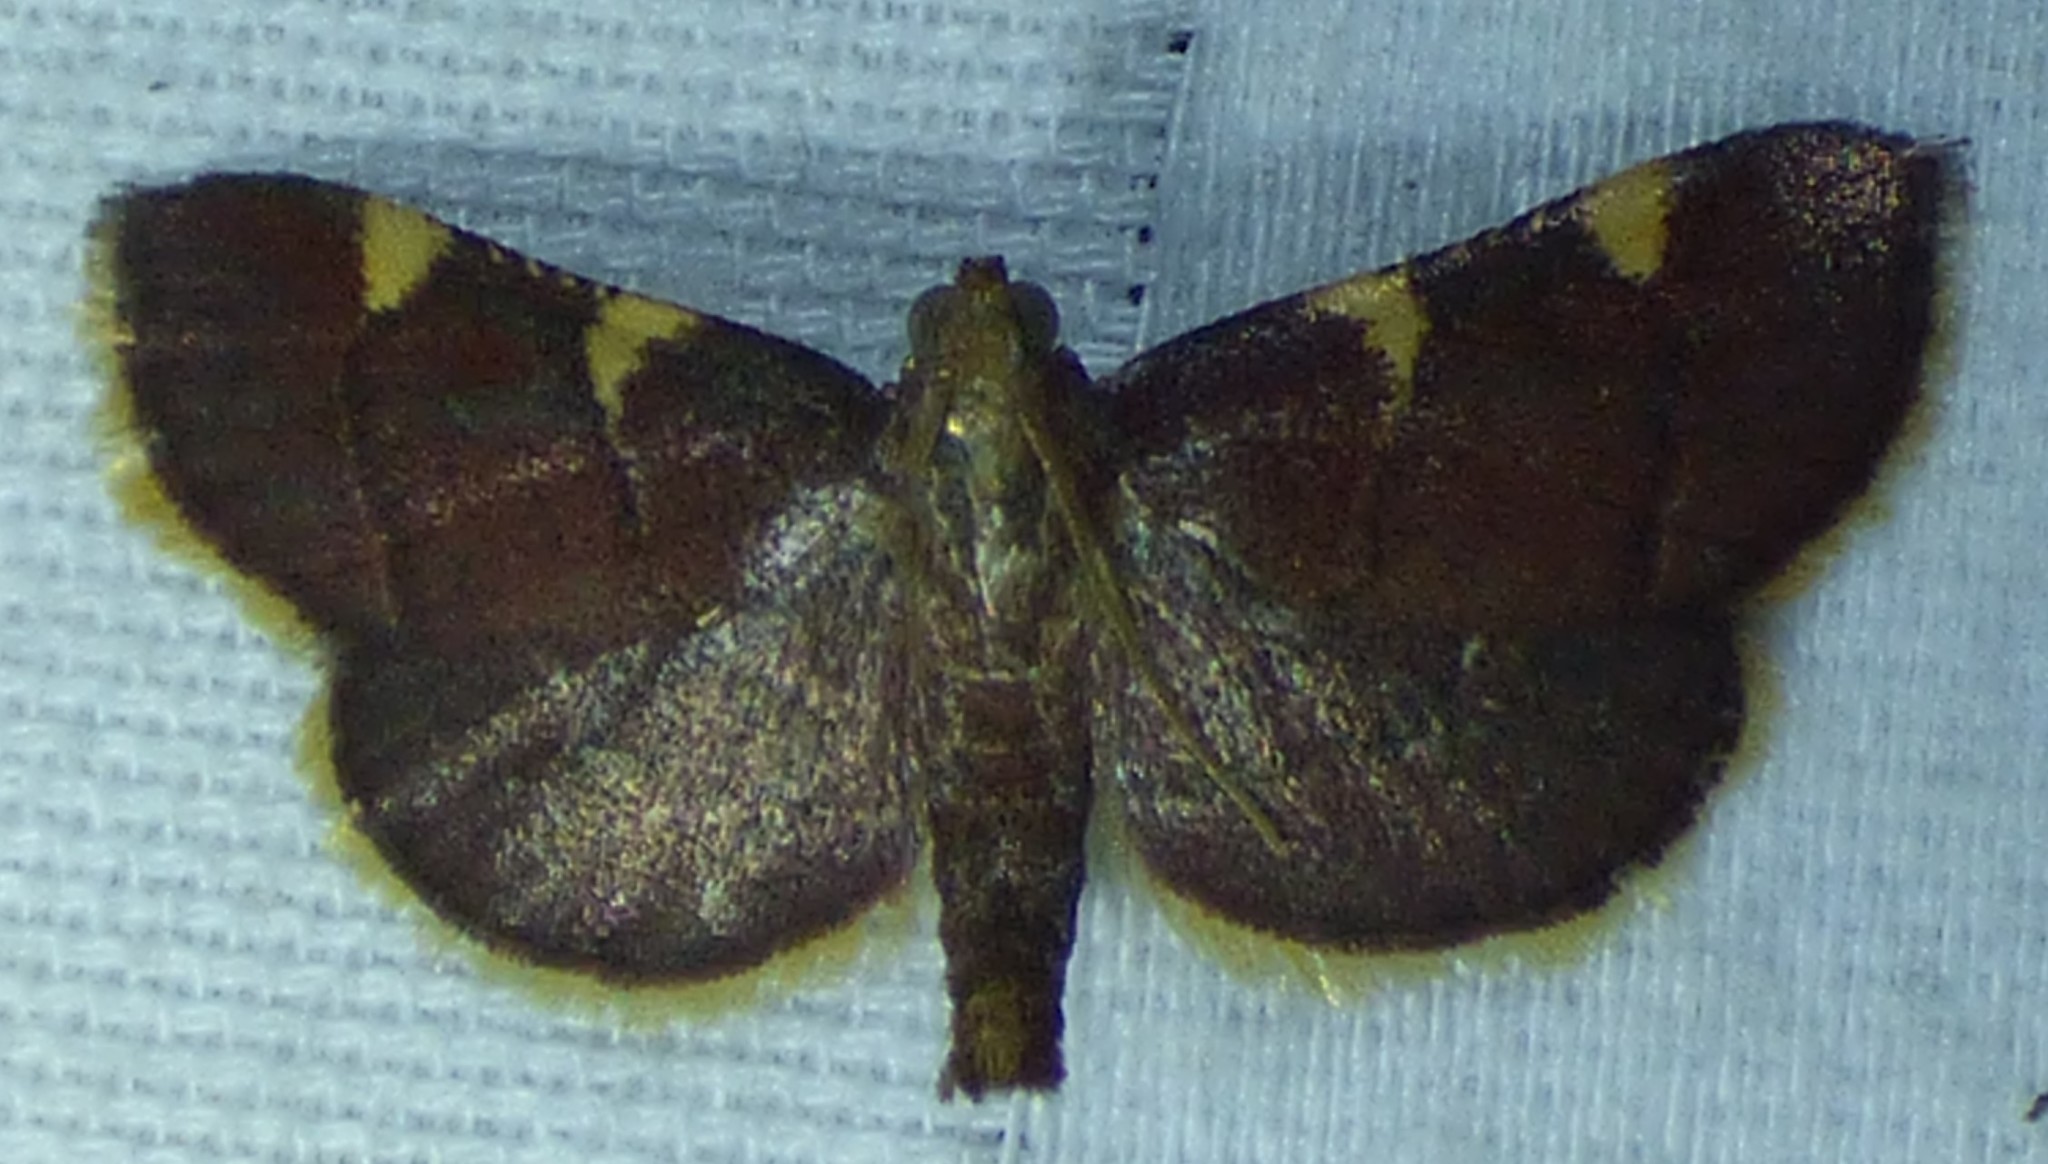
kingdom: Animalia
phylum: Arthropoda
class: Insecta
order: Lepidoptera
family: Pyralidae
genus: Hypsopygia
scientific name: Hypsopygia olinalis
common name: Yellow-fringed dolichomia moth
